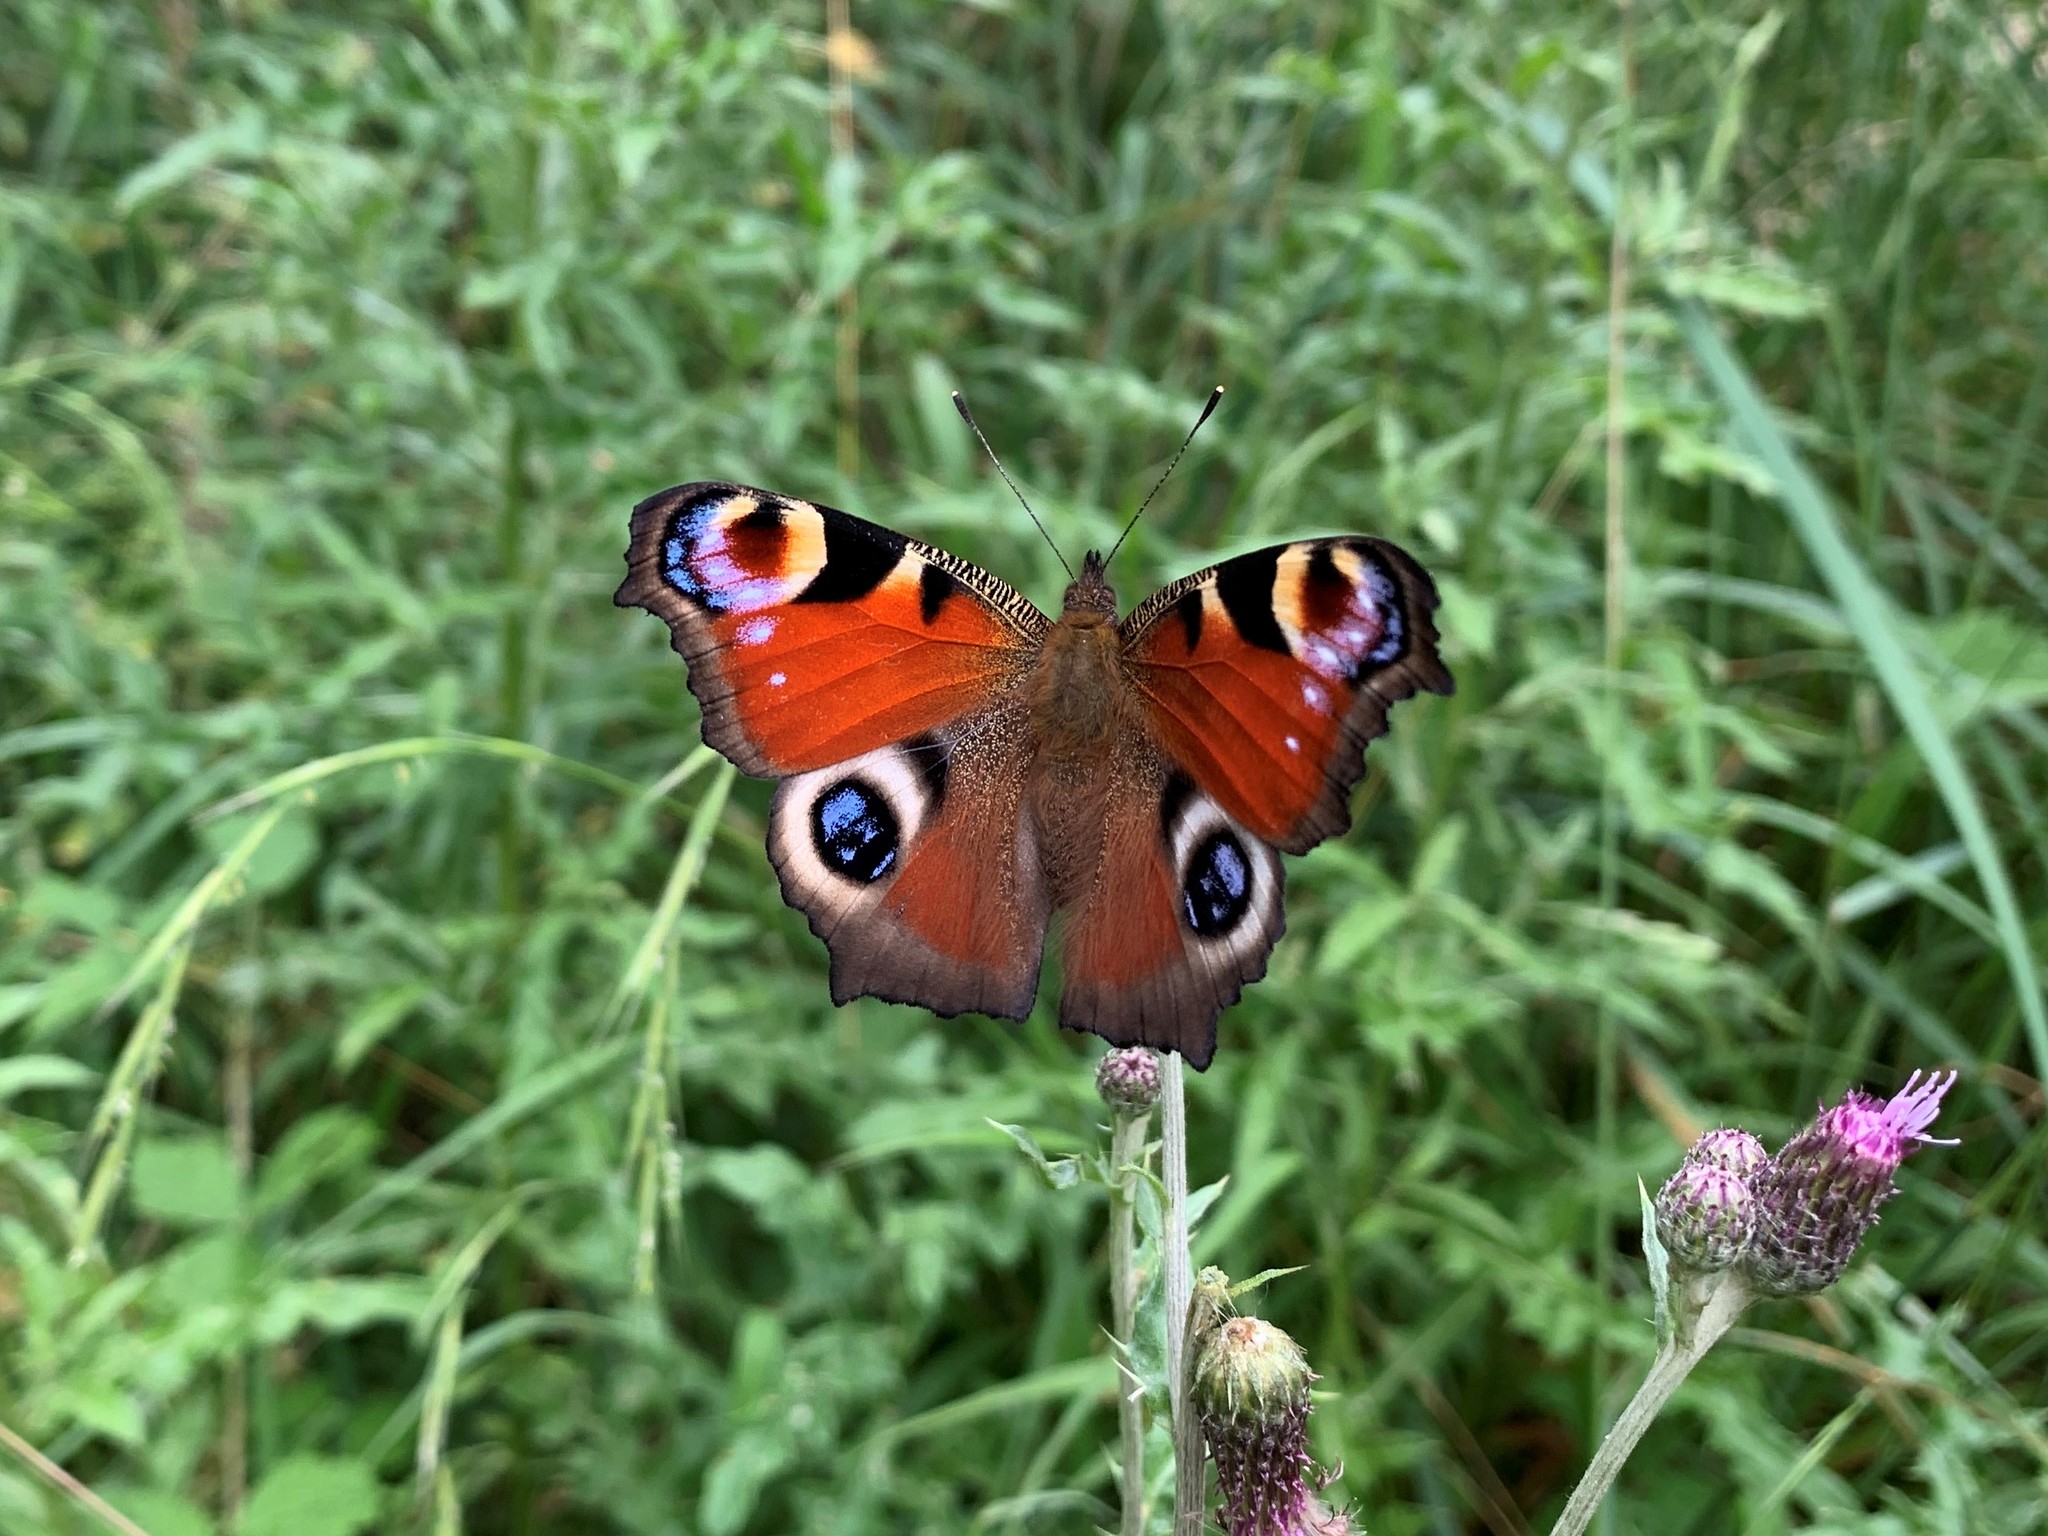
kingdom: Animalia
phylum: Arthropoda
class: Insecta
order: Lepidoptera
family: Nymphalidae
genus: Aglais
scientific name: Aglais io
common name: Peacock
